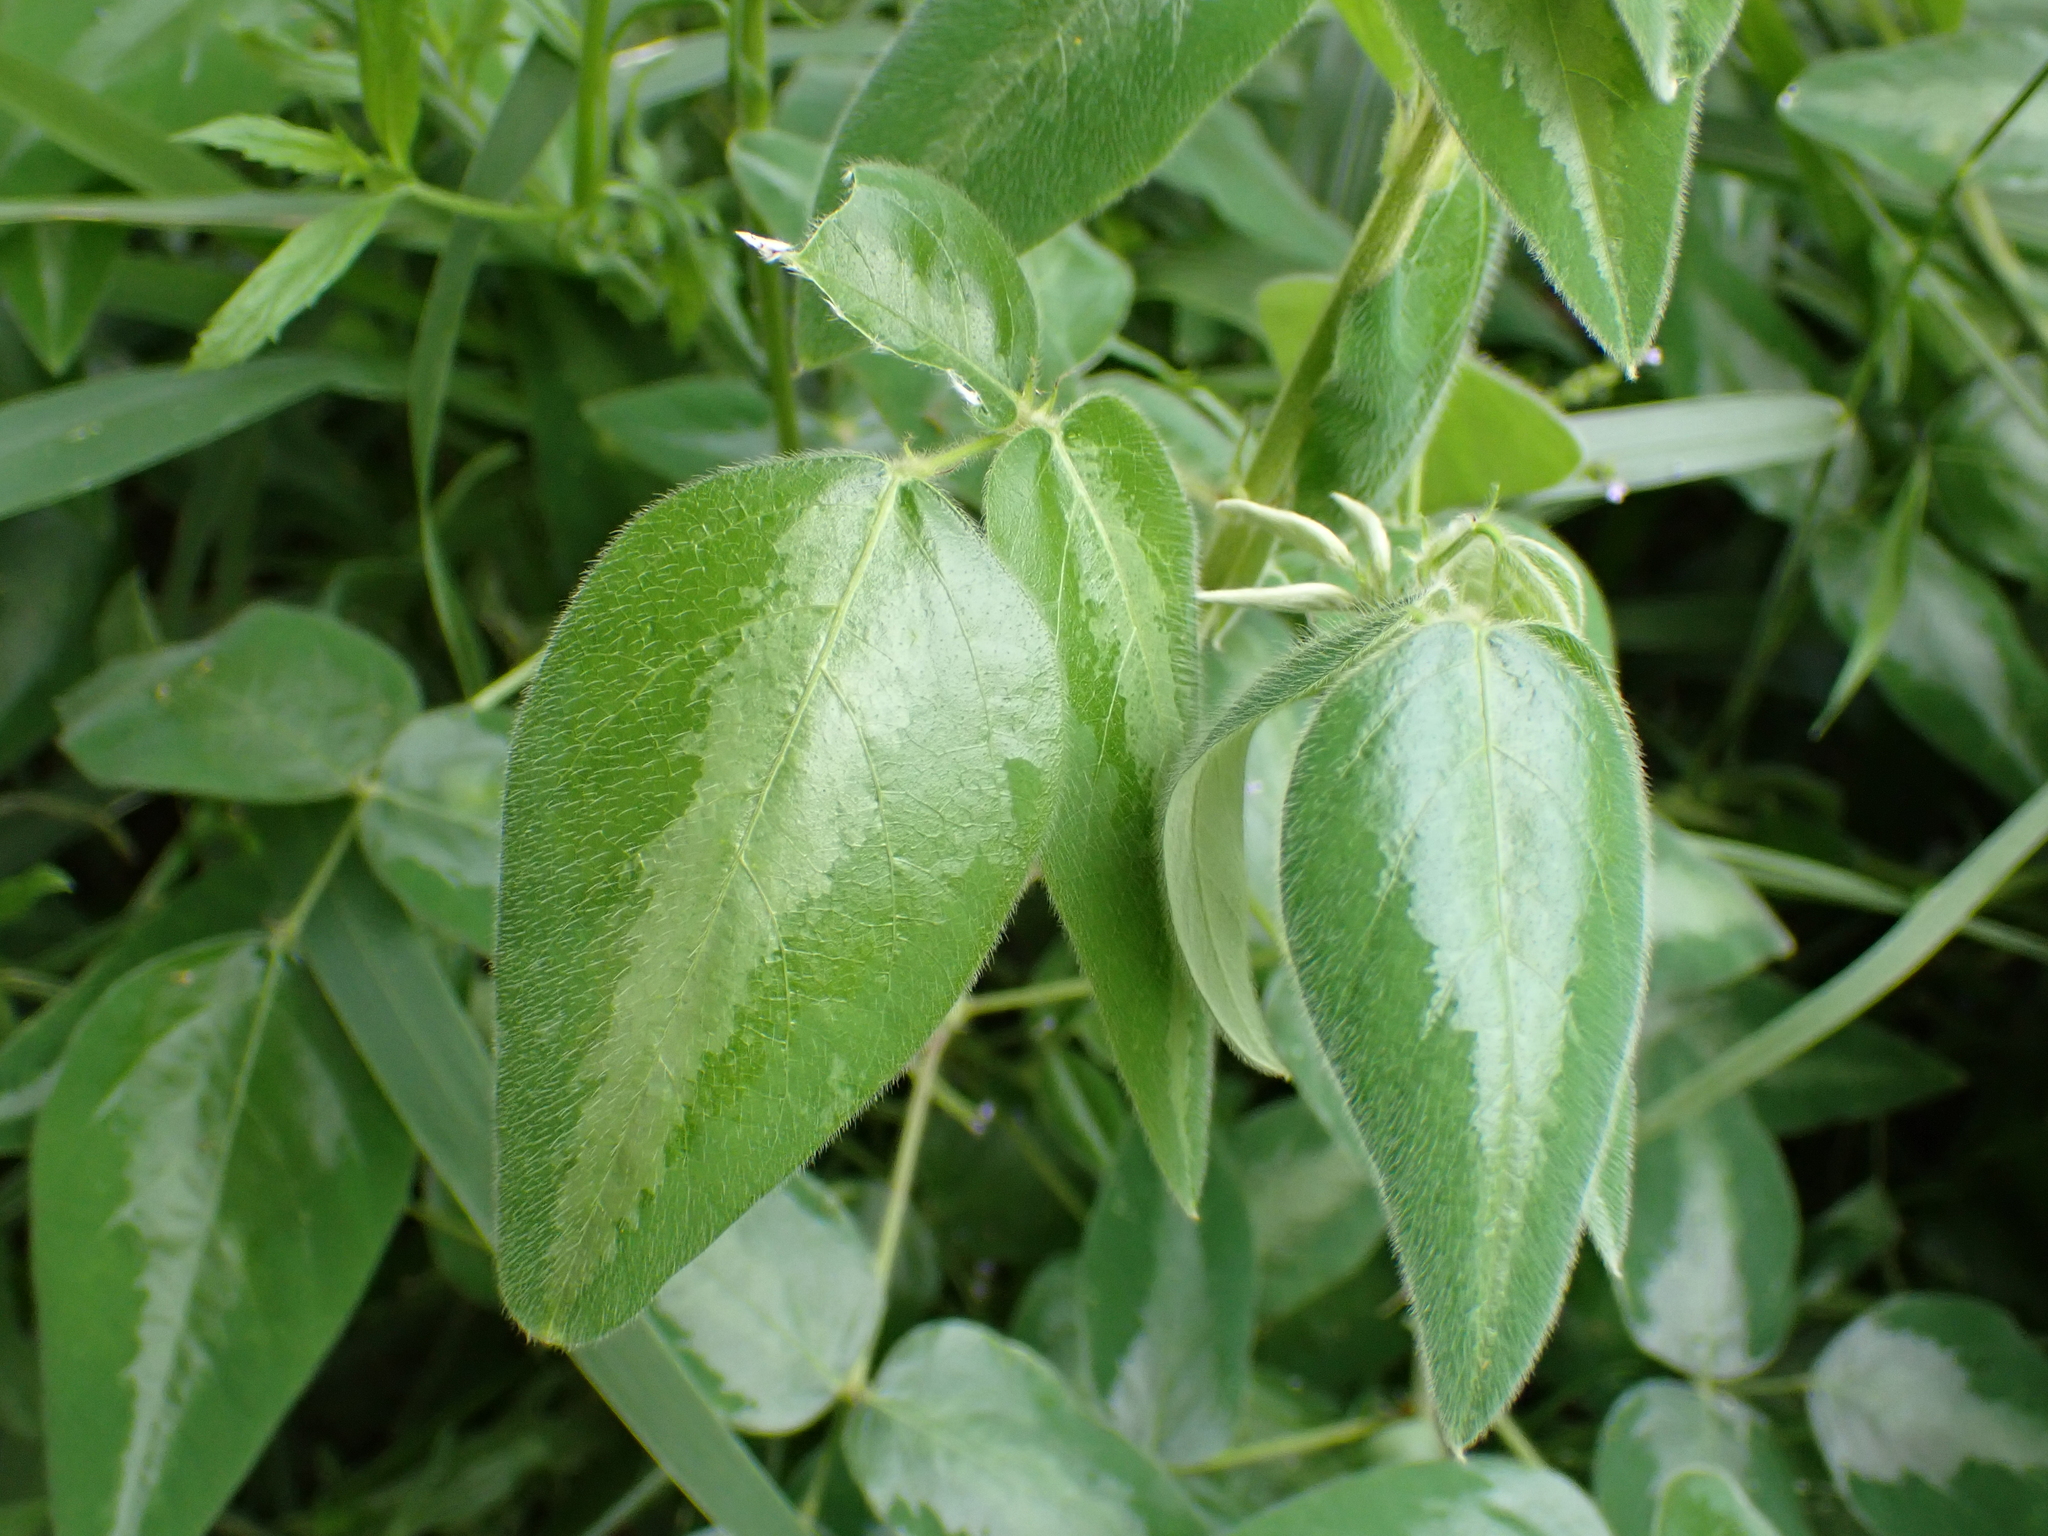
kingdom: Plantae
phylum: Tracheophyta
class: Magnoliopsida
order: Fabales
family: Fabaceae
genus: Desmodium
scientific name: Desmodium uncinatum
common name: Silverleaf desmodium
